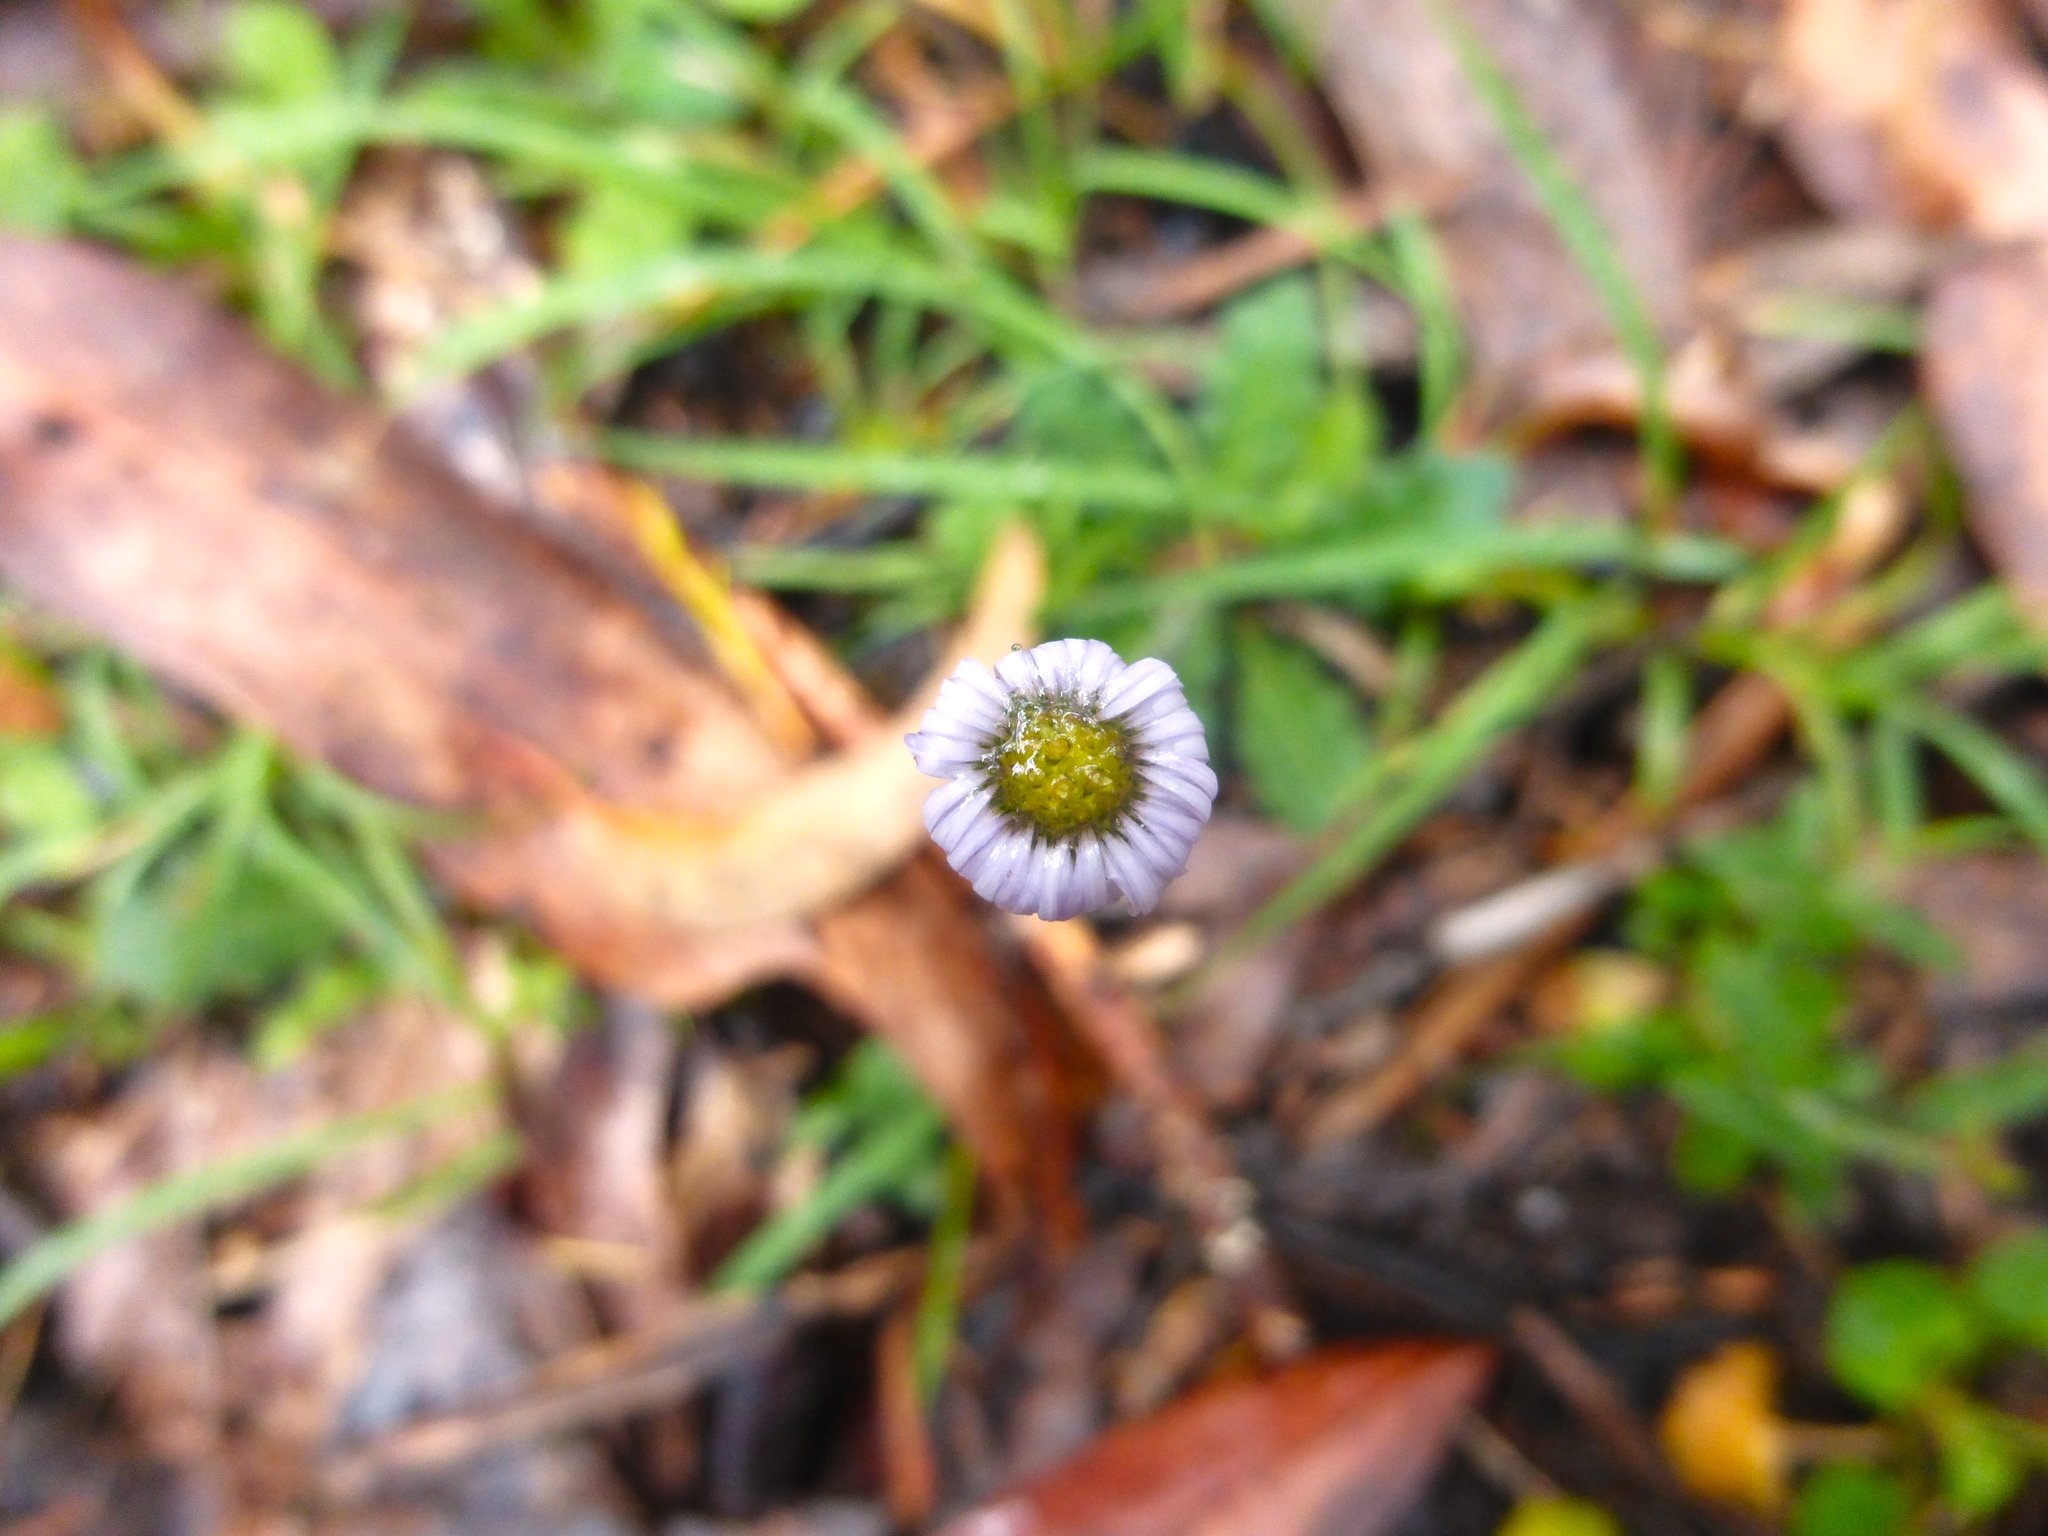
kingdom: Plantae
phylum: Tracheophyta
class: Magnoliopsida
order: Asterales
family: Asteraceae
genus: Lagenophora
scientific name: Lagenophora stipitata
